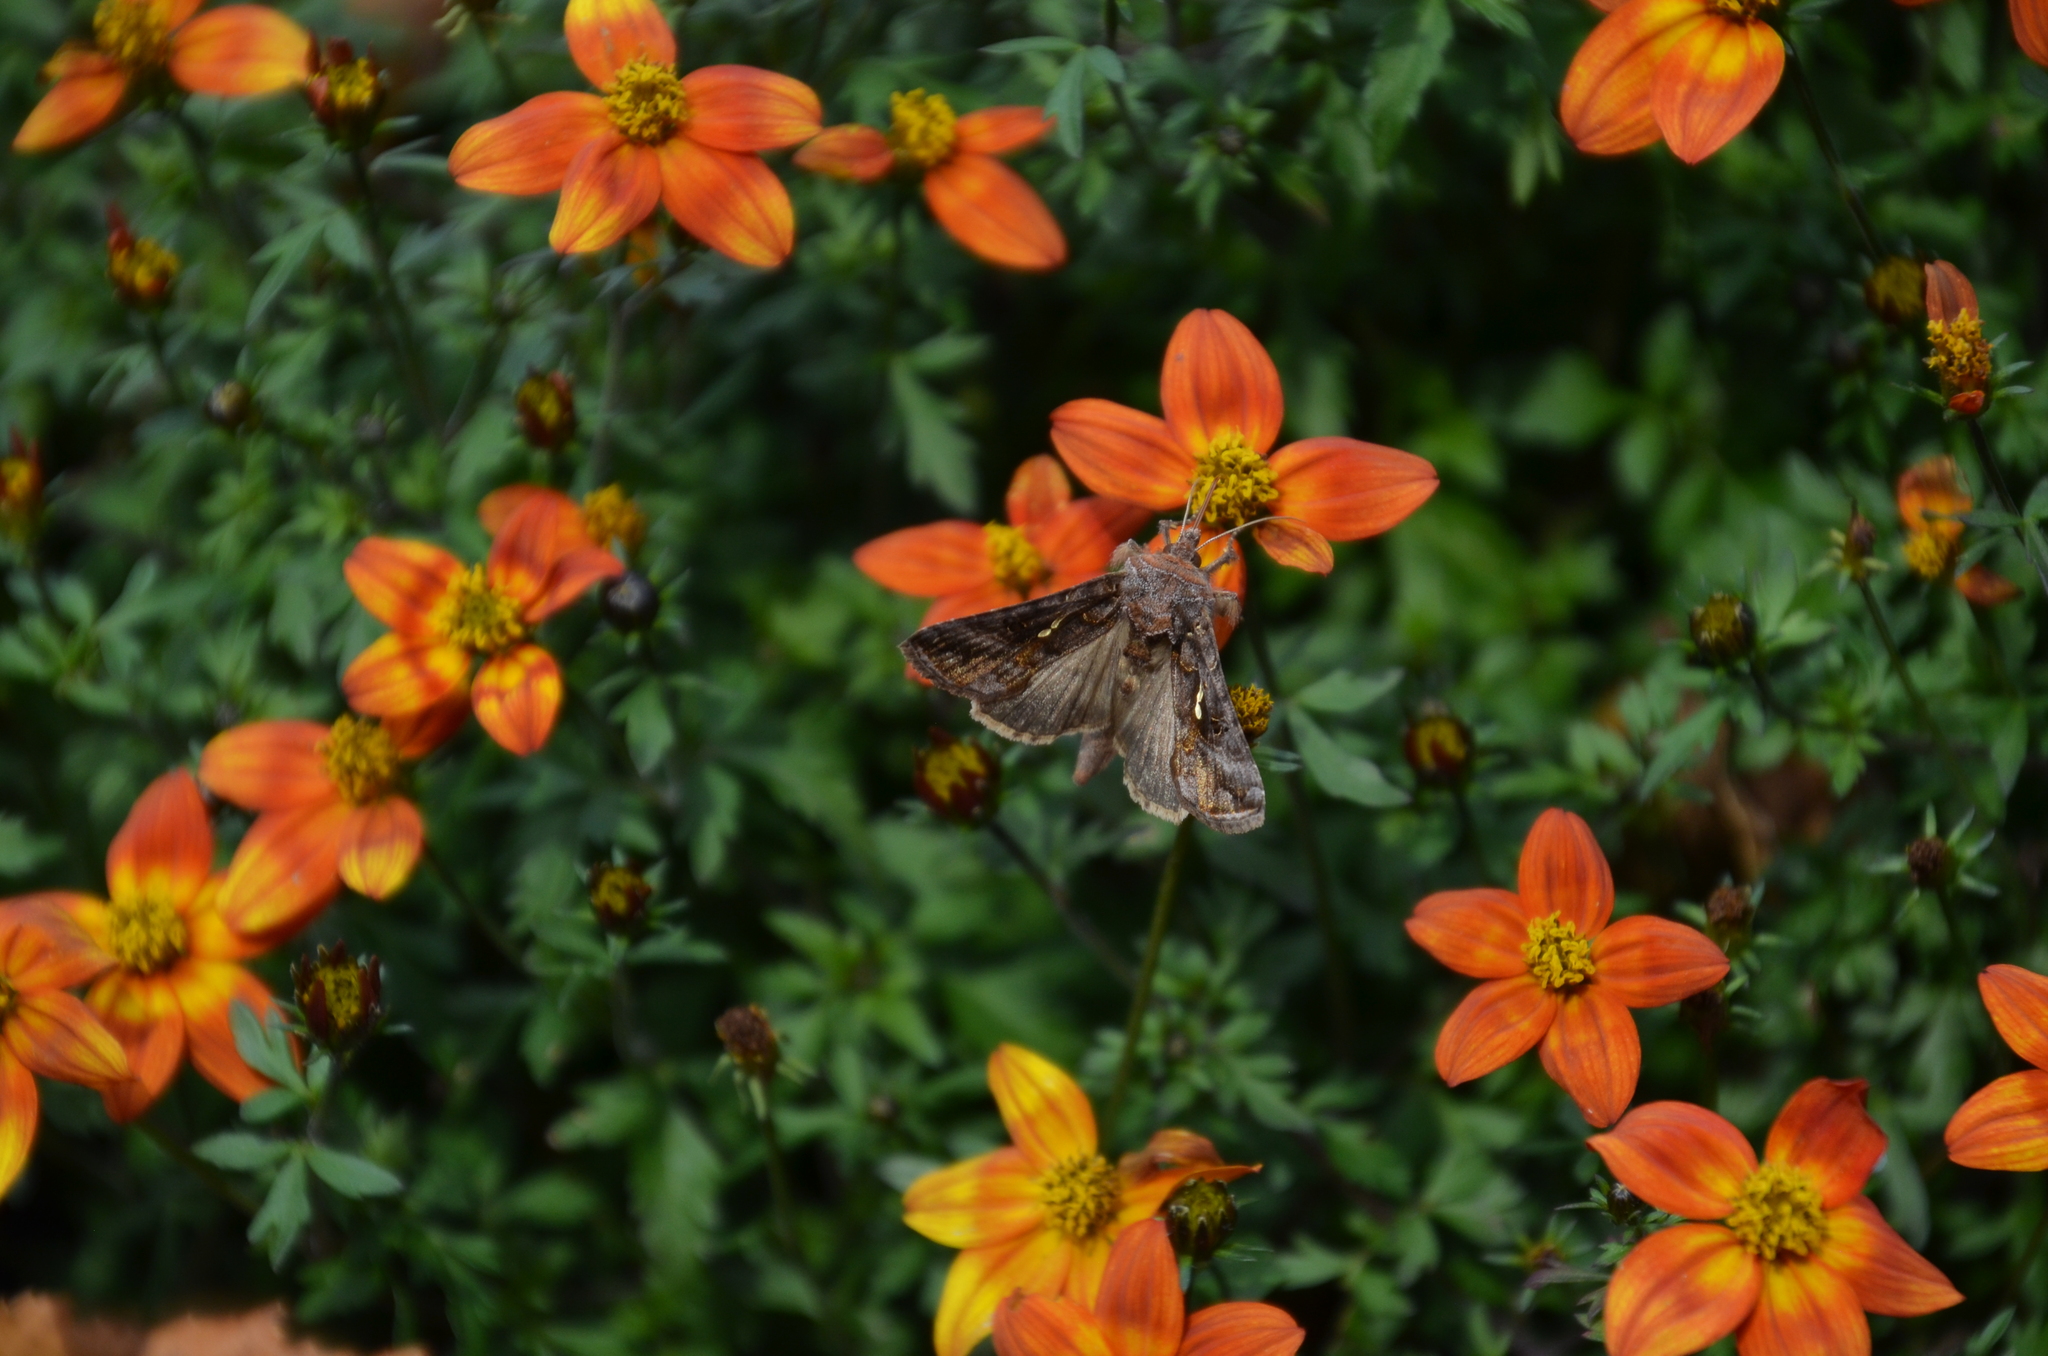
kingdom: Animalia
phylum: Arthropoda
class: Insecta
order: Lepidoptera
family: Noctuidae
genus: Autographa
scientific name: Autographa precationis
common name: Common looper moth
